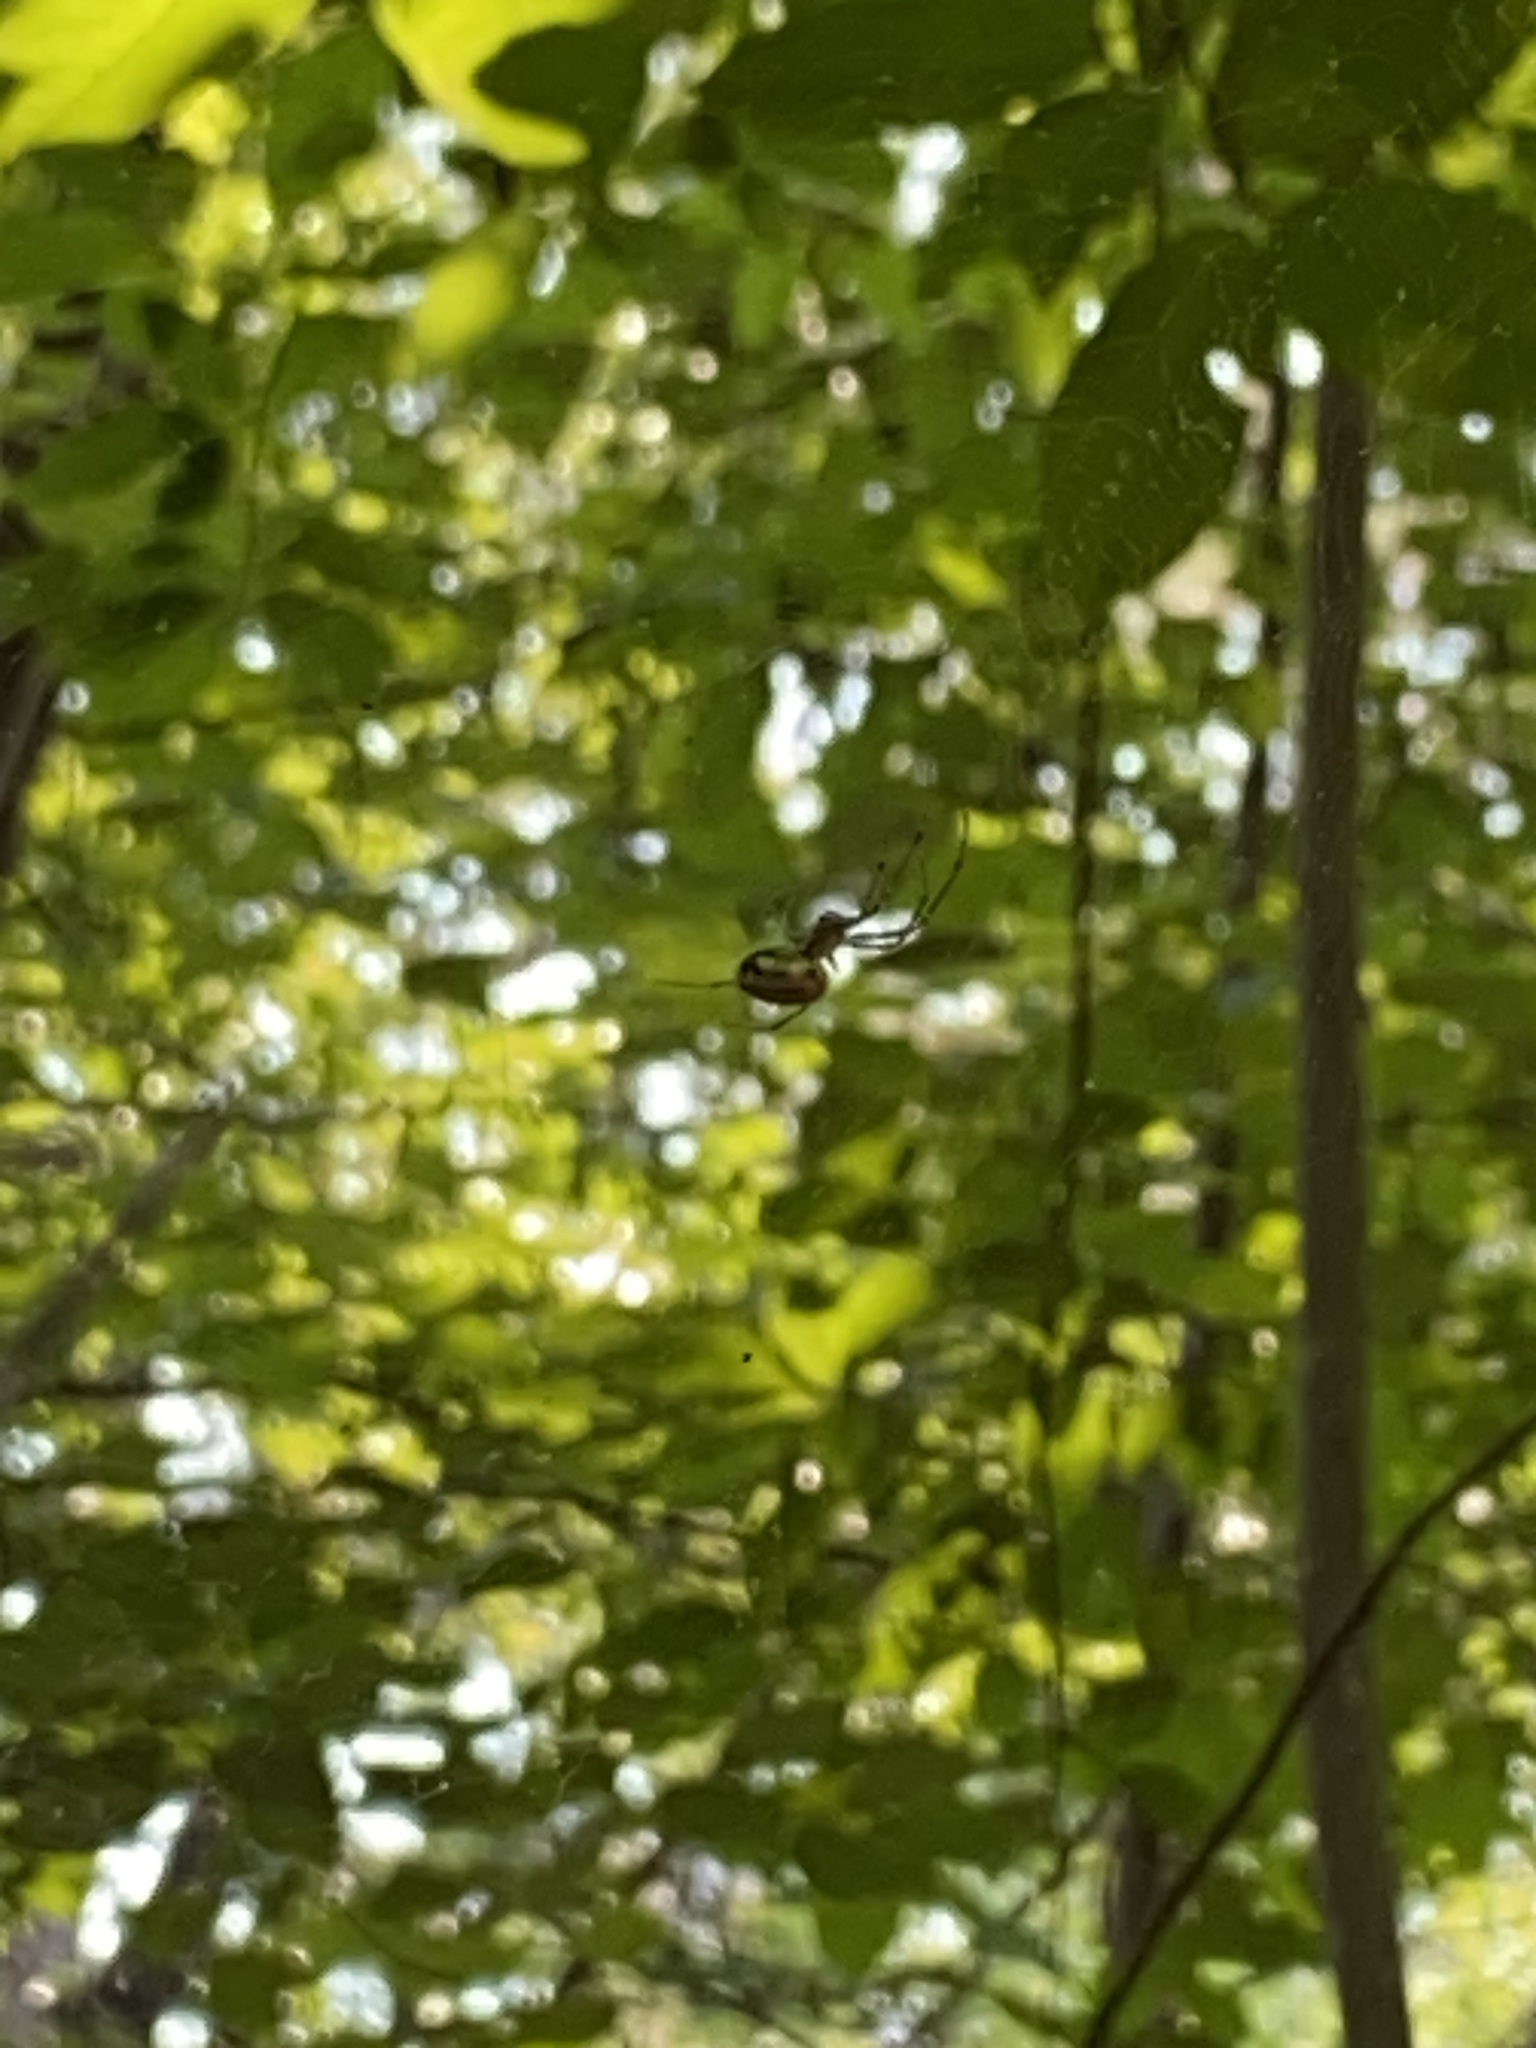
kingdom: Animalia
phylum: Arthropoda
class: Arachnida
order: Araneae
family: Tetragnathidae
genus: Leucauge
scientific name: Leucauge venusta
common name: Longjawed orb weavers
